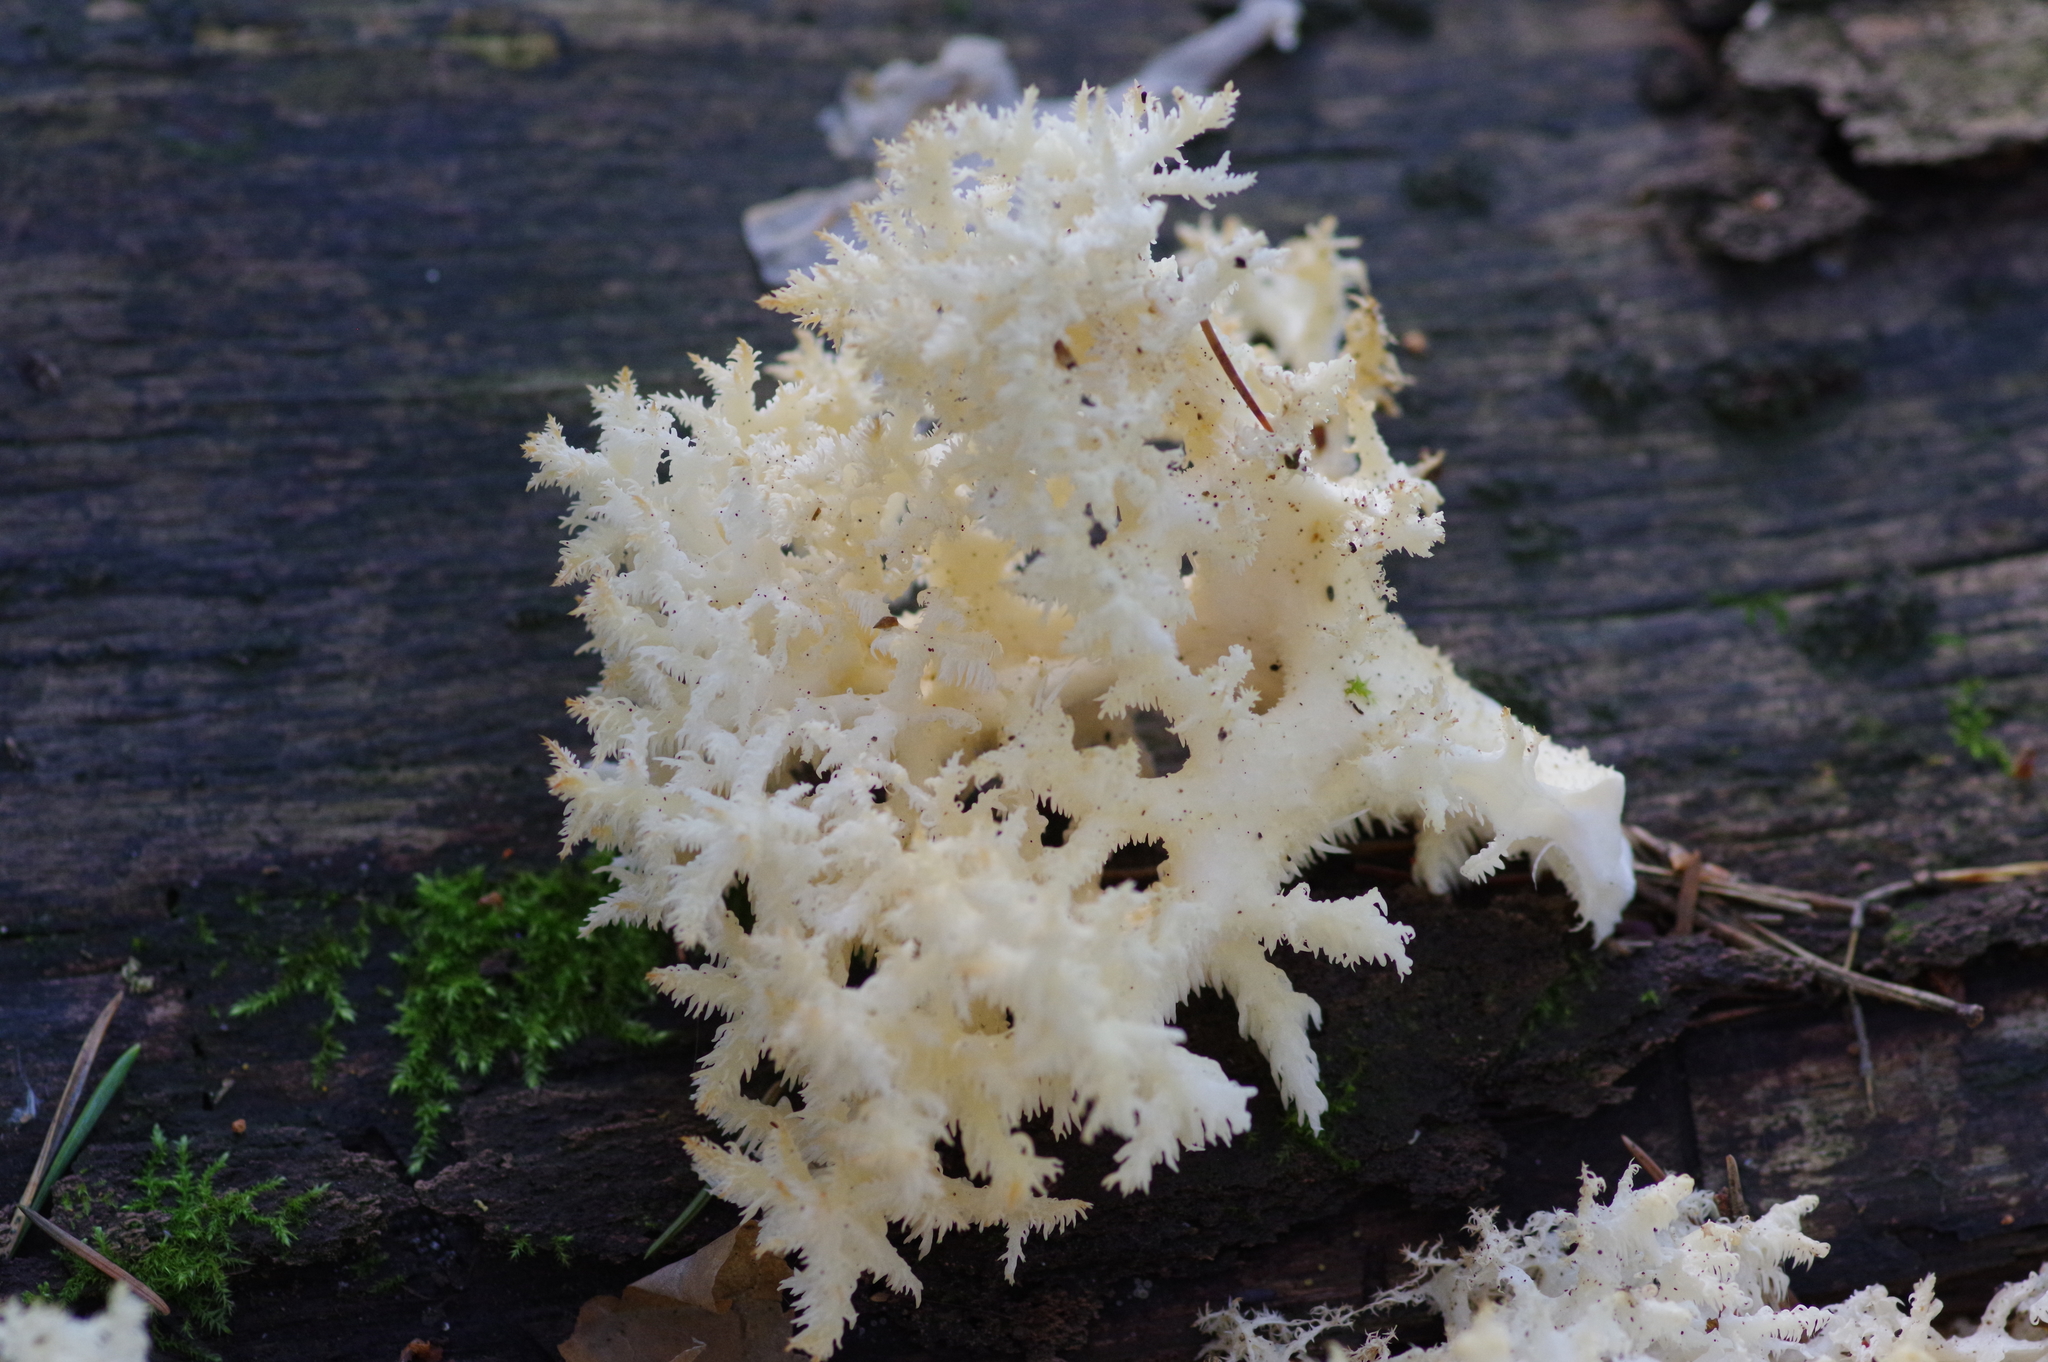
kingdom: Fungi
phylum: Basidiomycota
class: Agaricomycetes
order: Russulales
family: Hericiaceae
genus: Hericium
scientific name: Hericium coralloides
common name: Coral tooth
